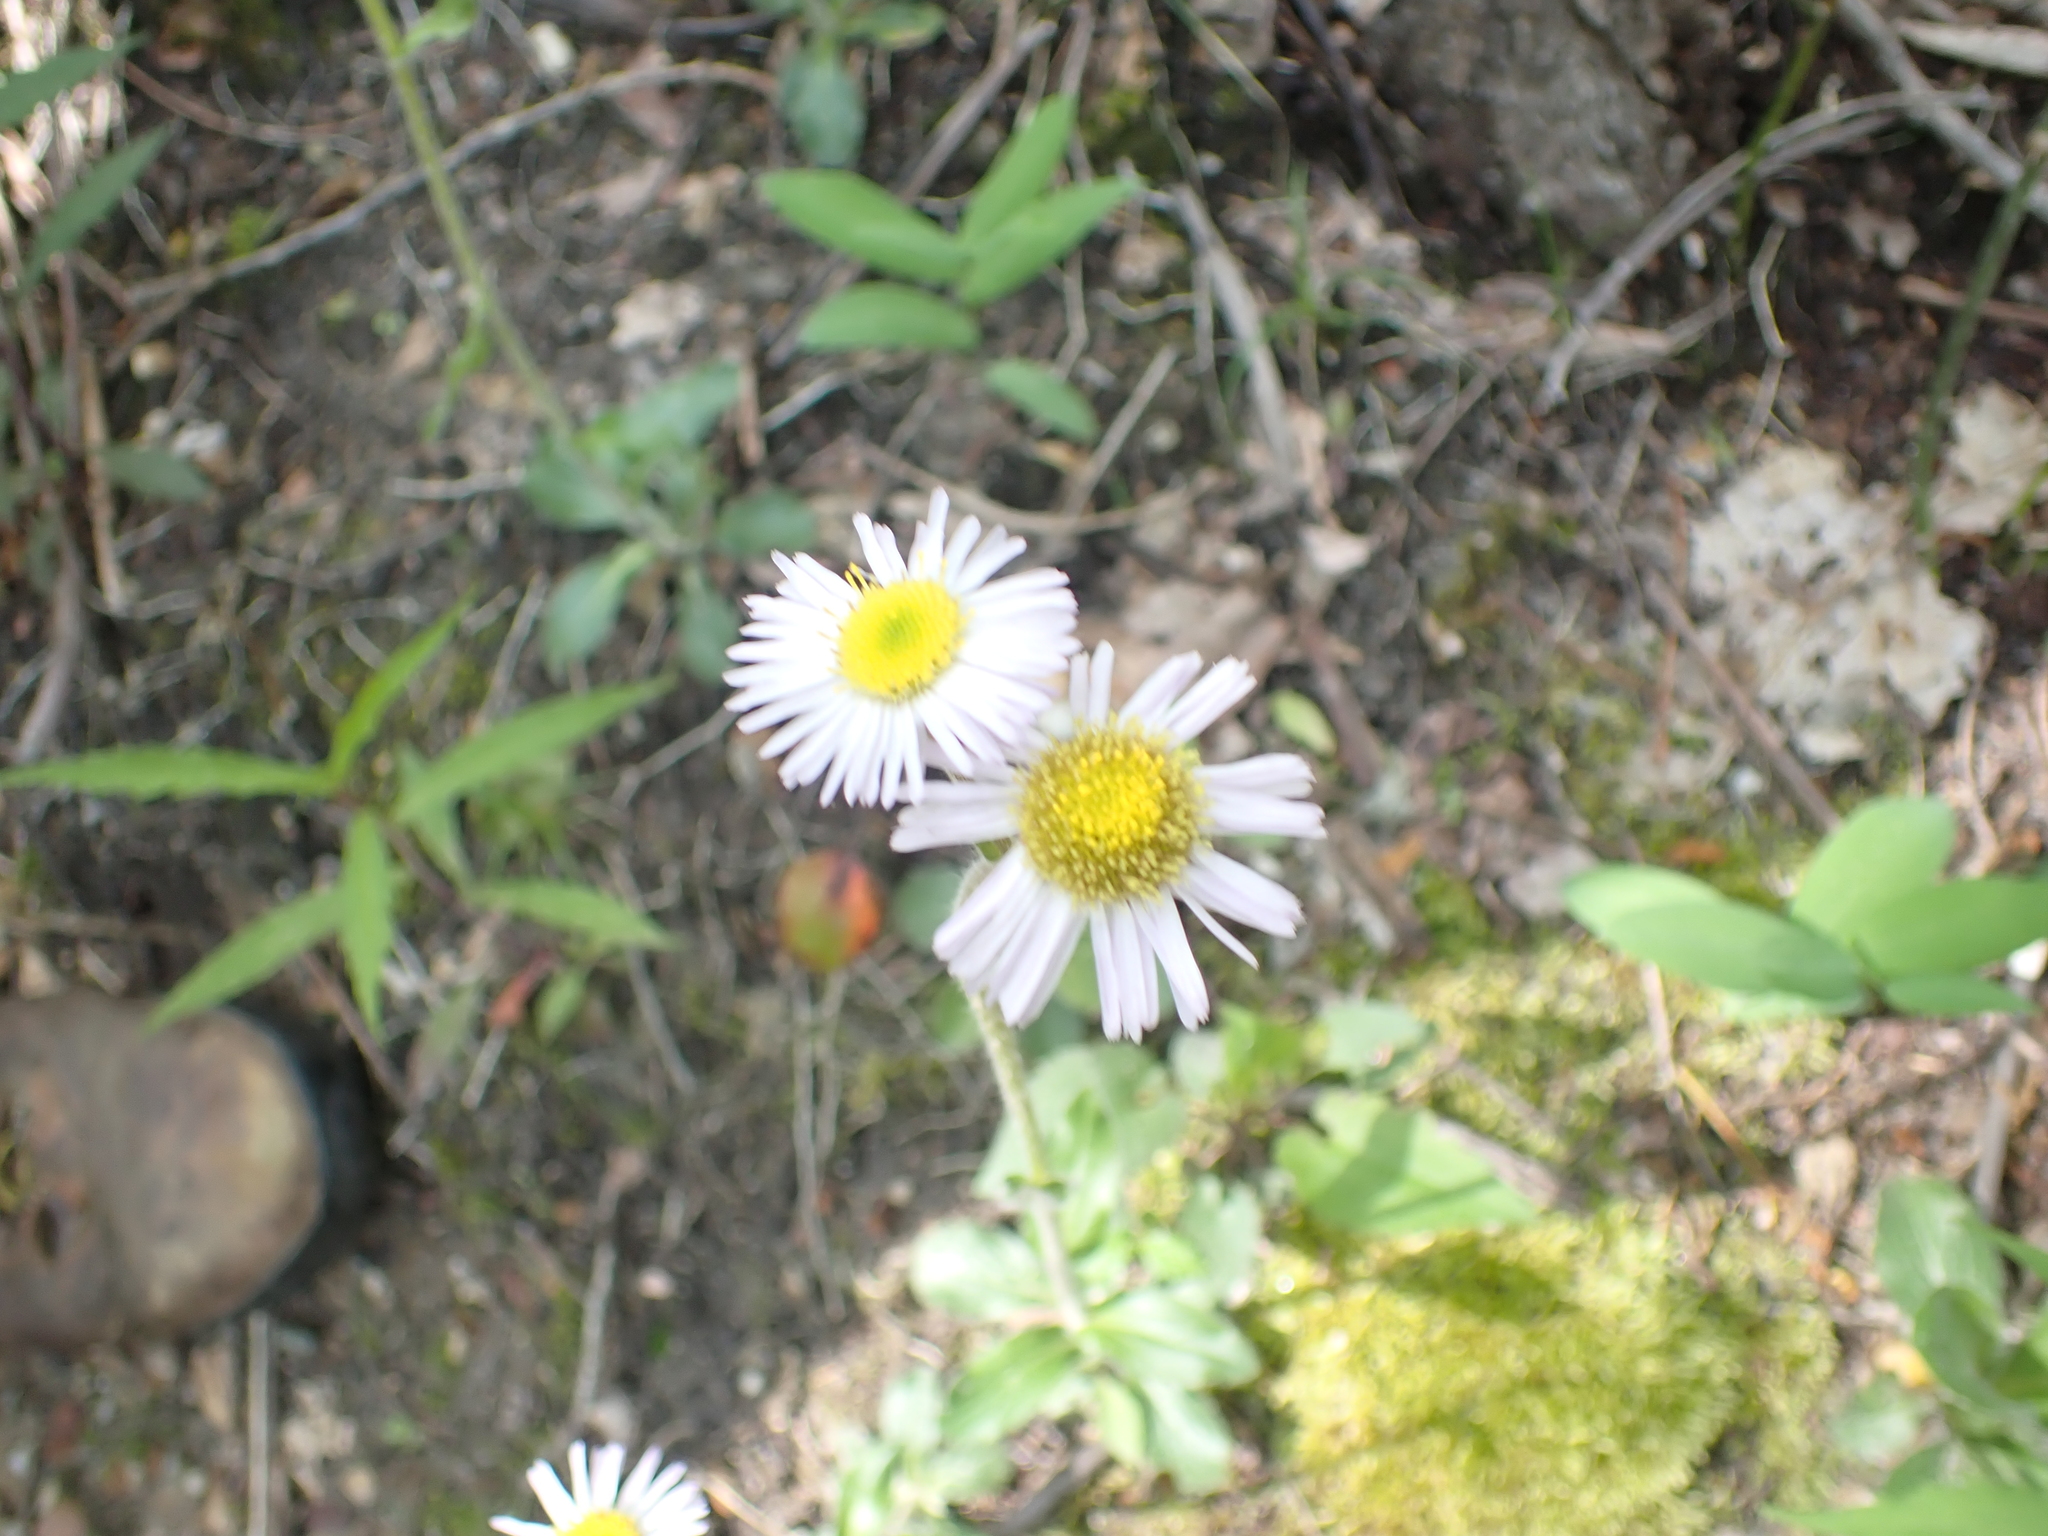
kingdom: Plantae
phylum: Tracheophyta
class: Magnoliopsida
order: Asterales
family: Asteraceae
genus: Erigeron
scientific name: Erigeron pulchellus
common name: Hairy fleabane
